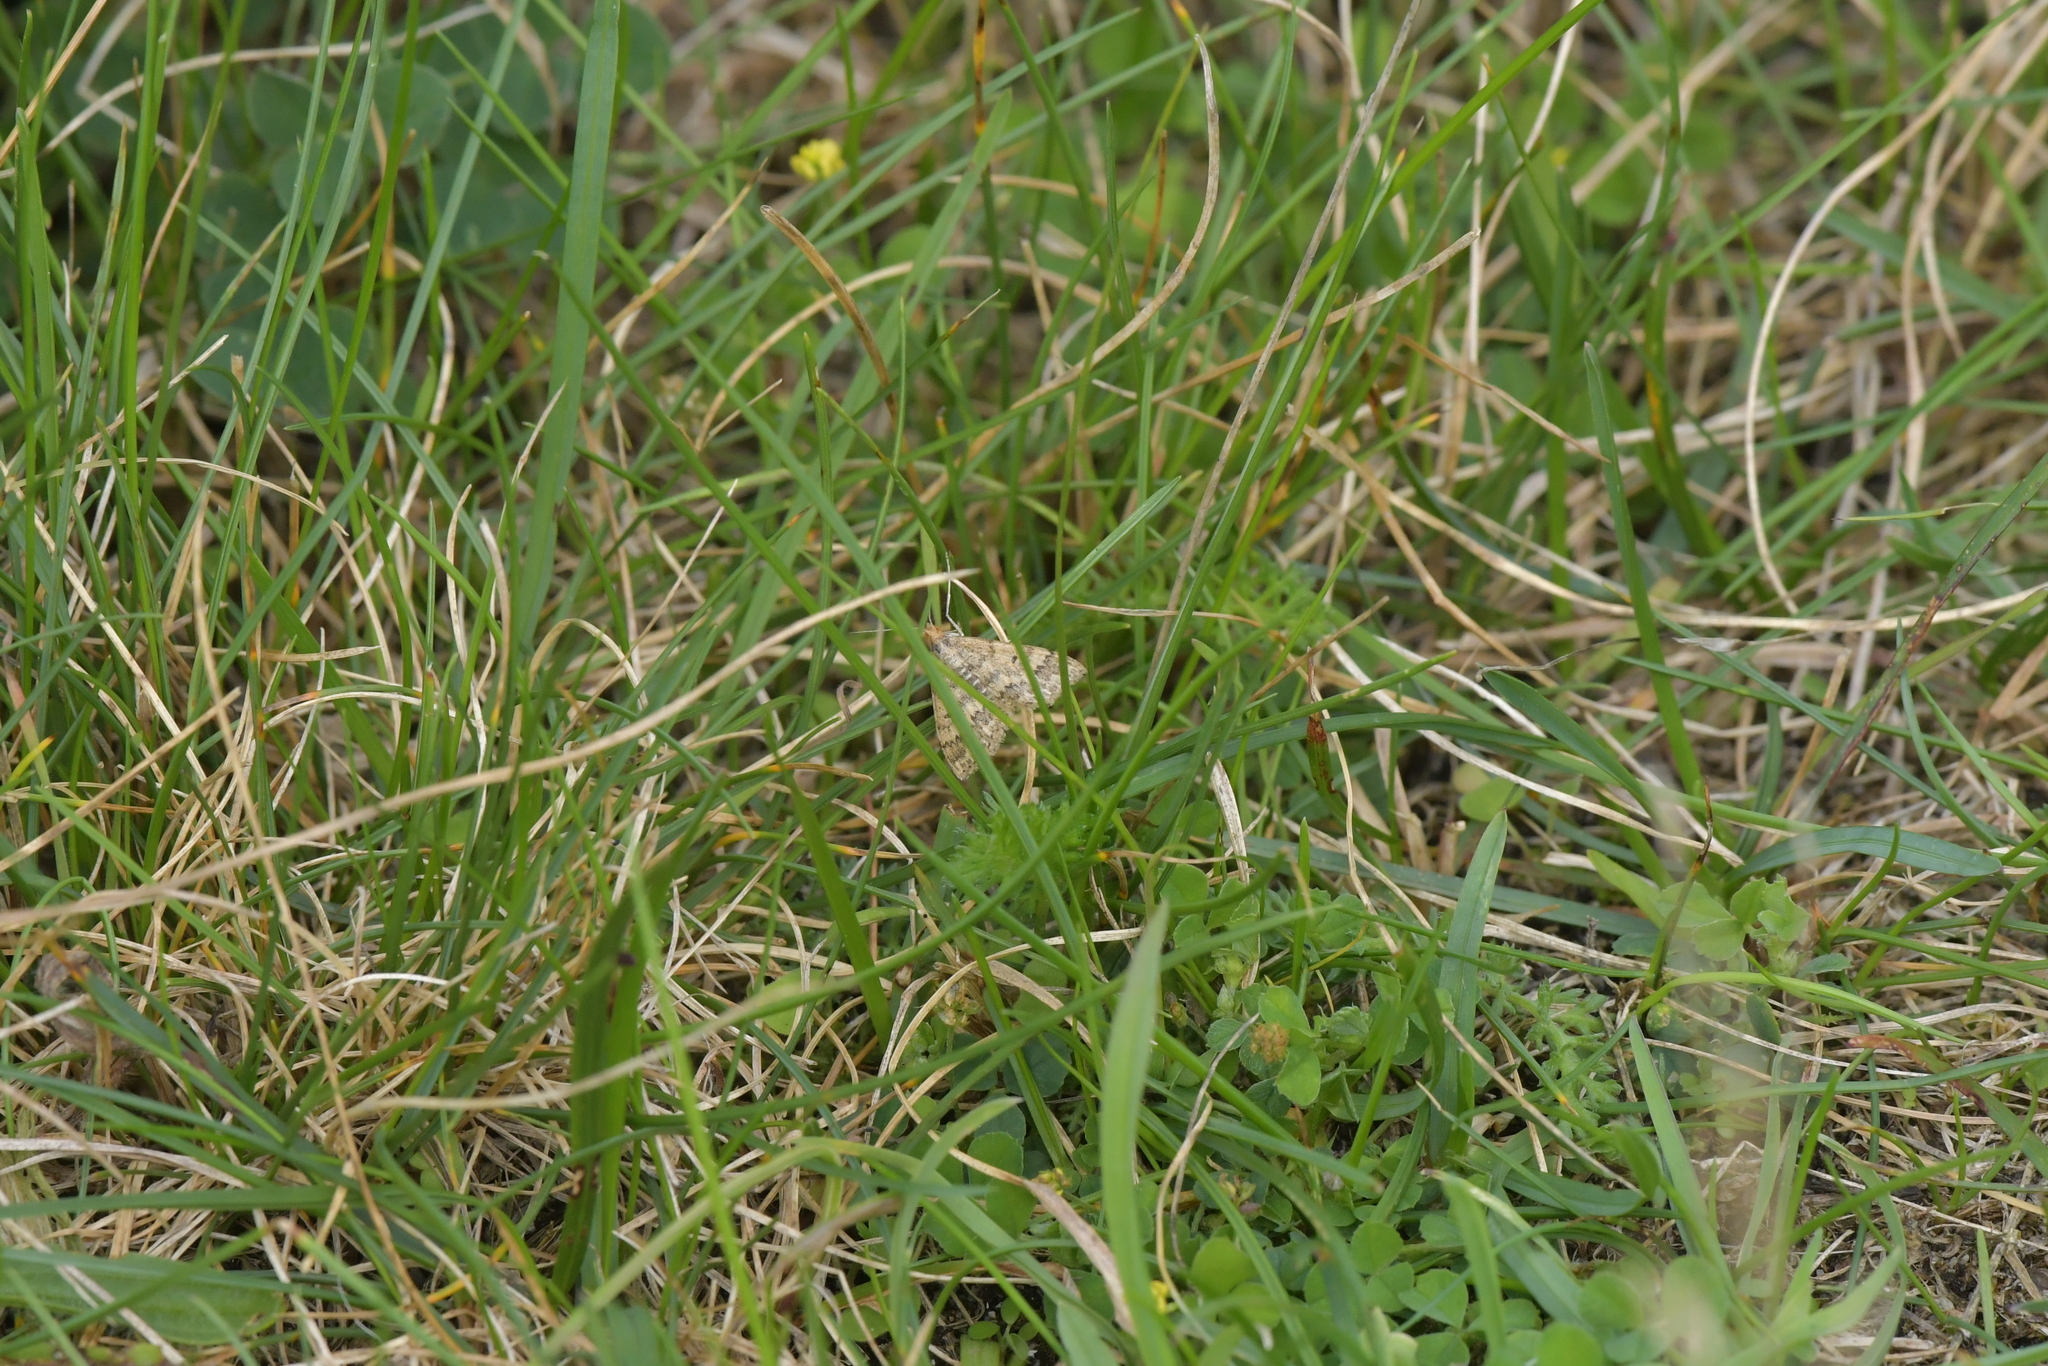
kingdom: Animalia
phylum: Arthropoda
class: Insecta
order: Lepidoptera
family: Geometridae
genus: Scopula
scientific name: Scopula rubraria
